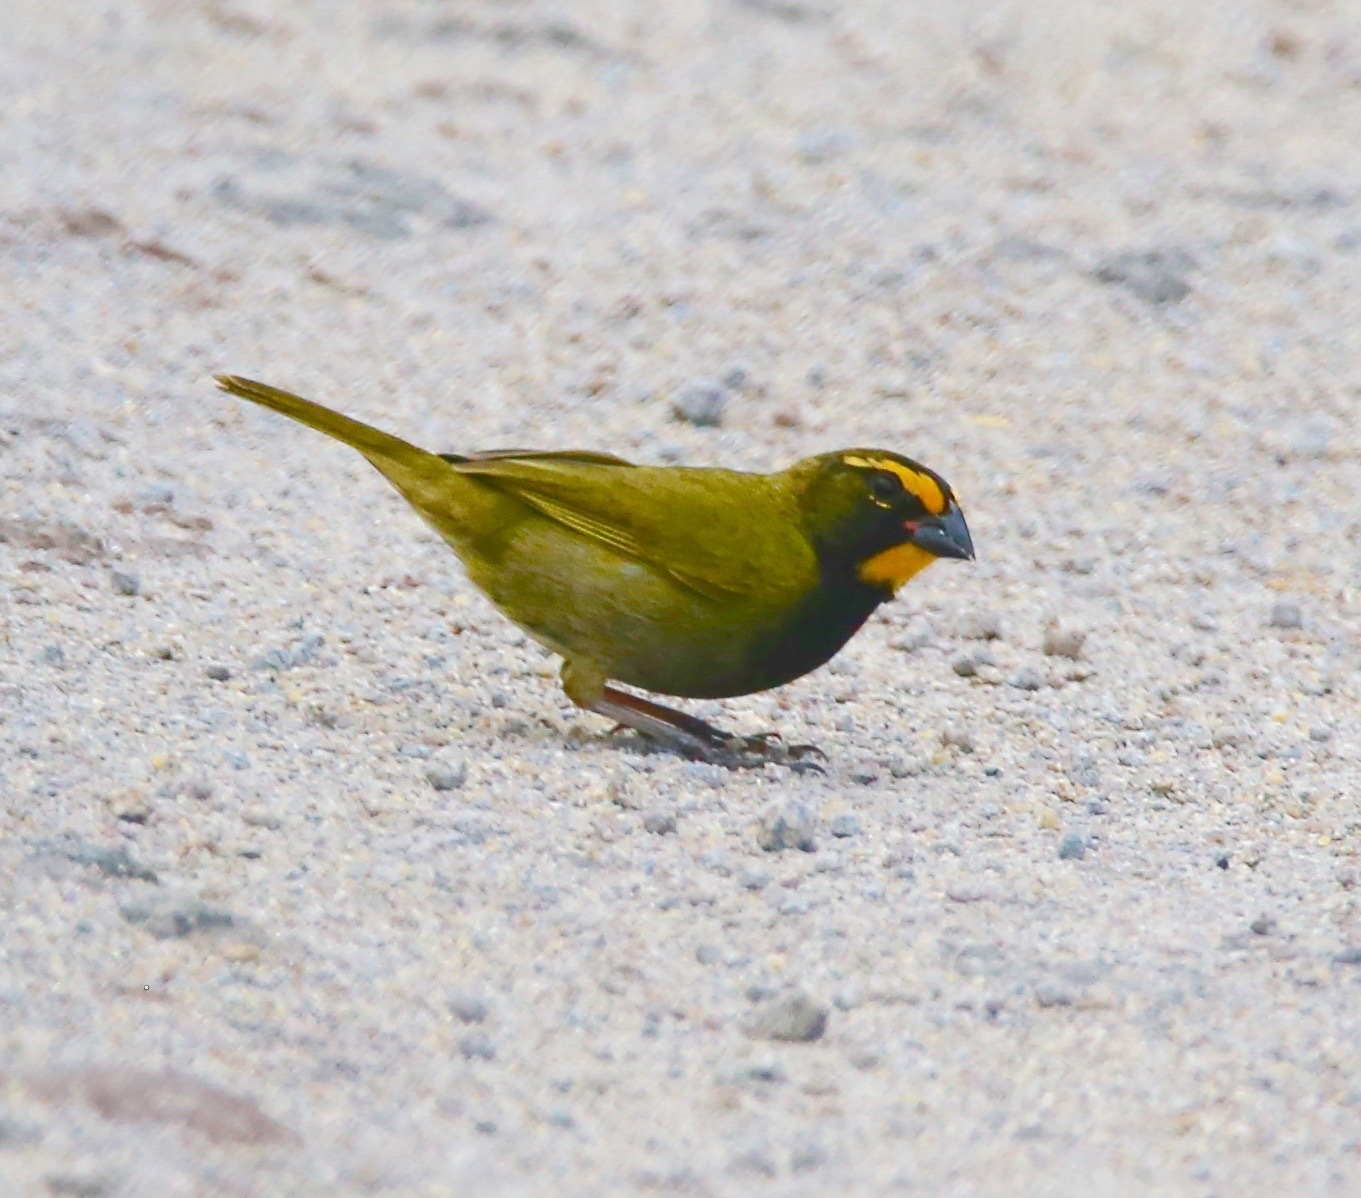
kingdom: Animalia
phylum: Chordata
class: Aves
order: Passeriformes
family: Thraupidae
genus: Tiaris
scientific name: Tiaris olivaceus
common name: Yellow-faced grassquit
